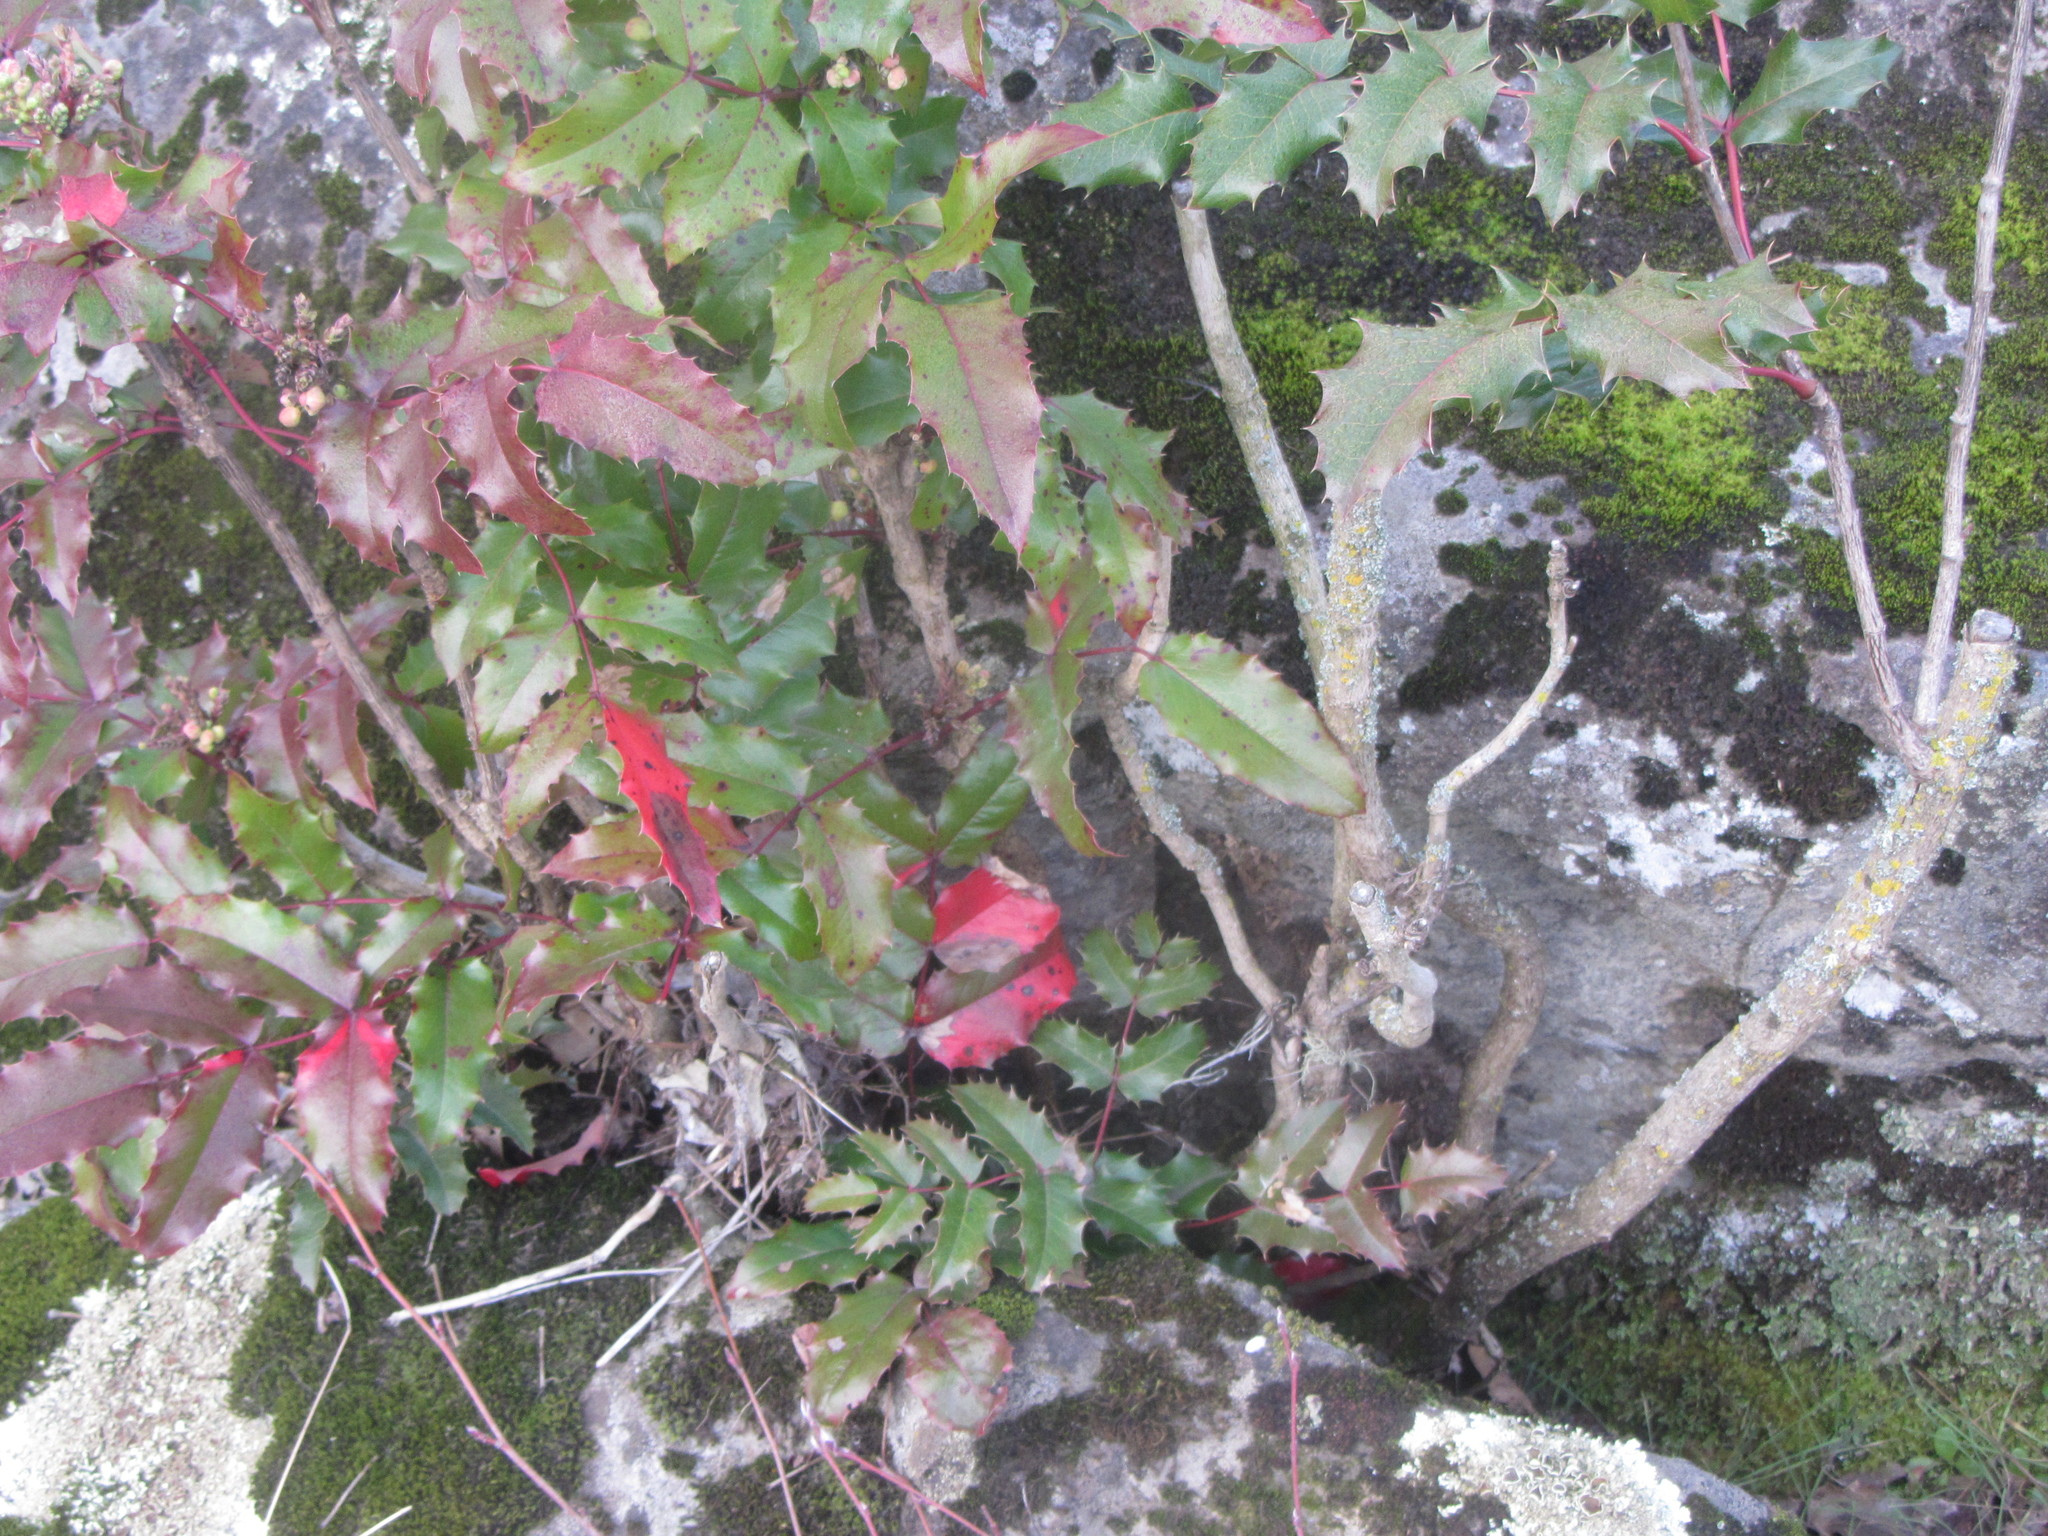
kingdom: Plantae
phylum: Tracheophyta
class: Magnoliopsida
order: Ranunculales
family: Berberidaceae
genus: Mahonia
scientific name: Mahonia aquifolium
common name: Oregon-grape
